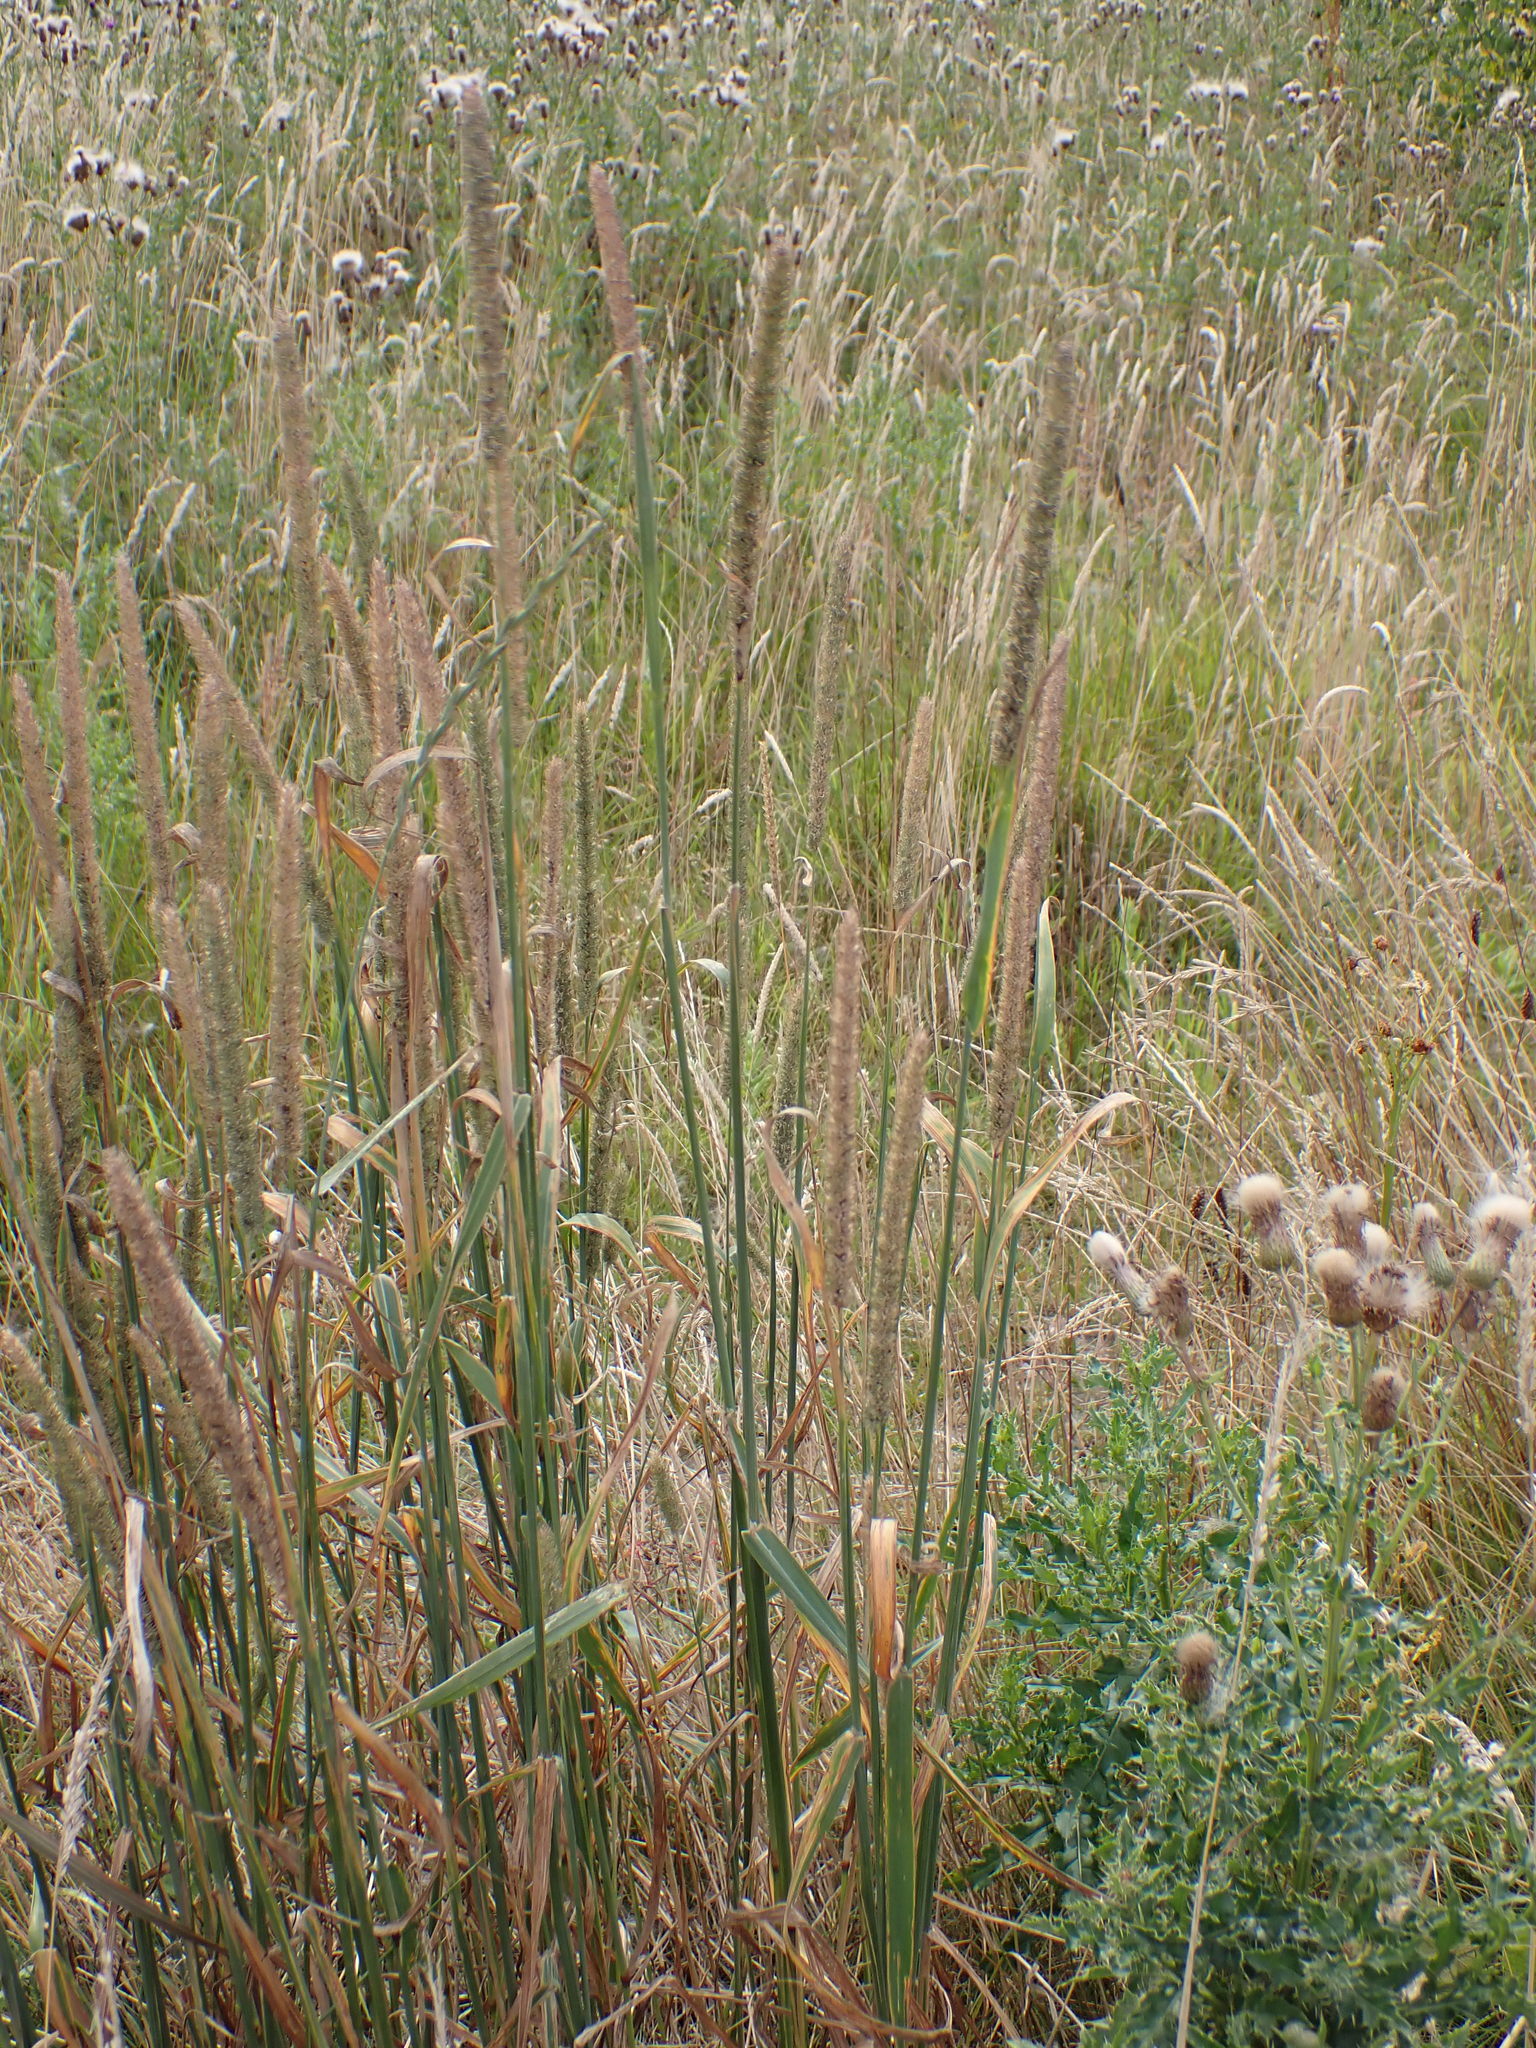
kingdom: Plantae
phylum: Tracheophyta
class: Liliopsida
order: Poales
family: Poaceae
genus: Phleum
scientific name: Phleum pratense
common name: Timothy grass
